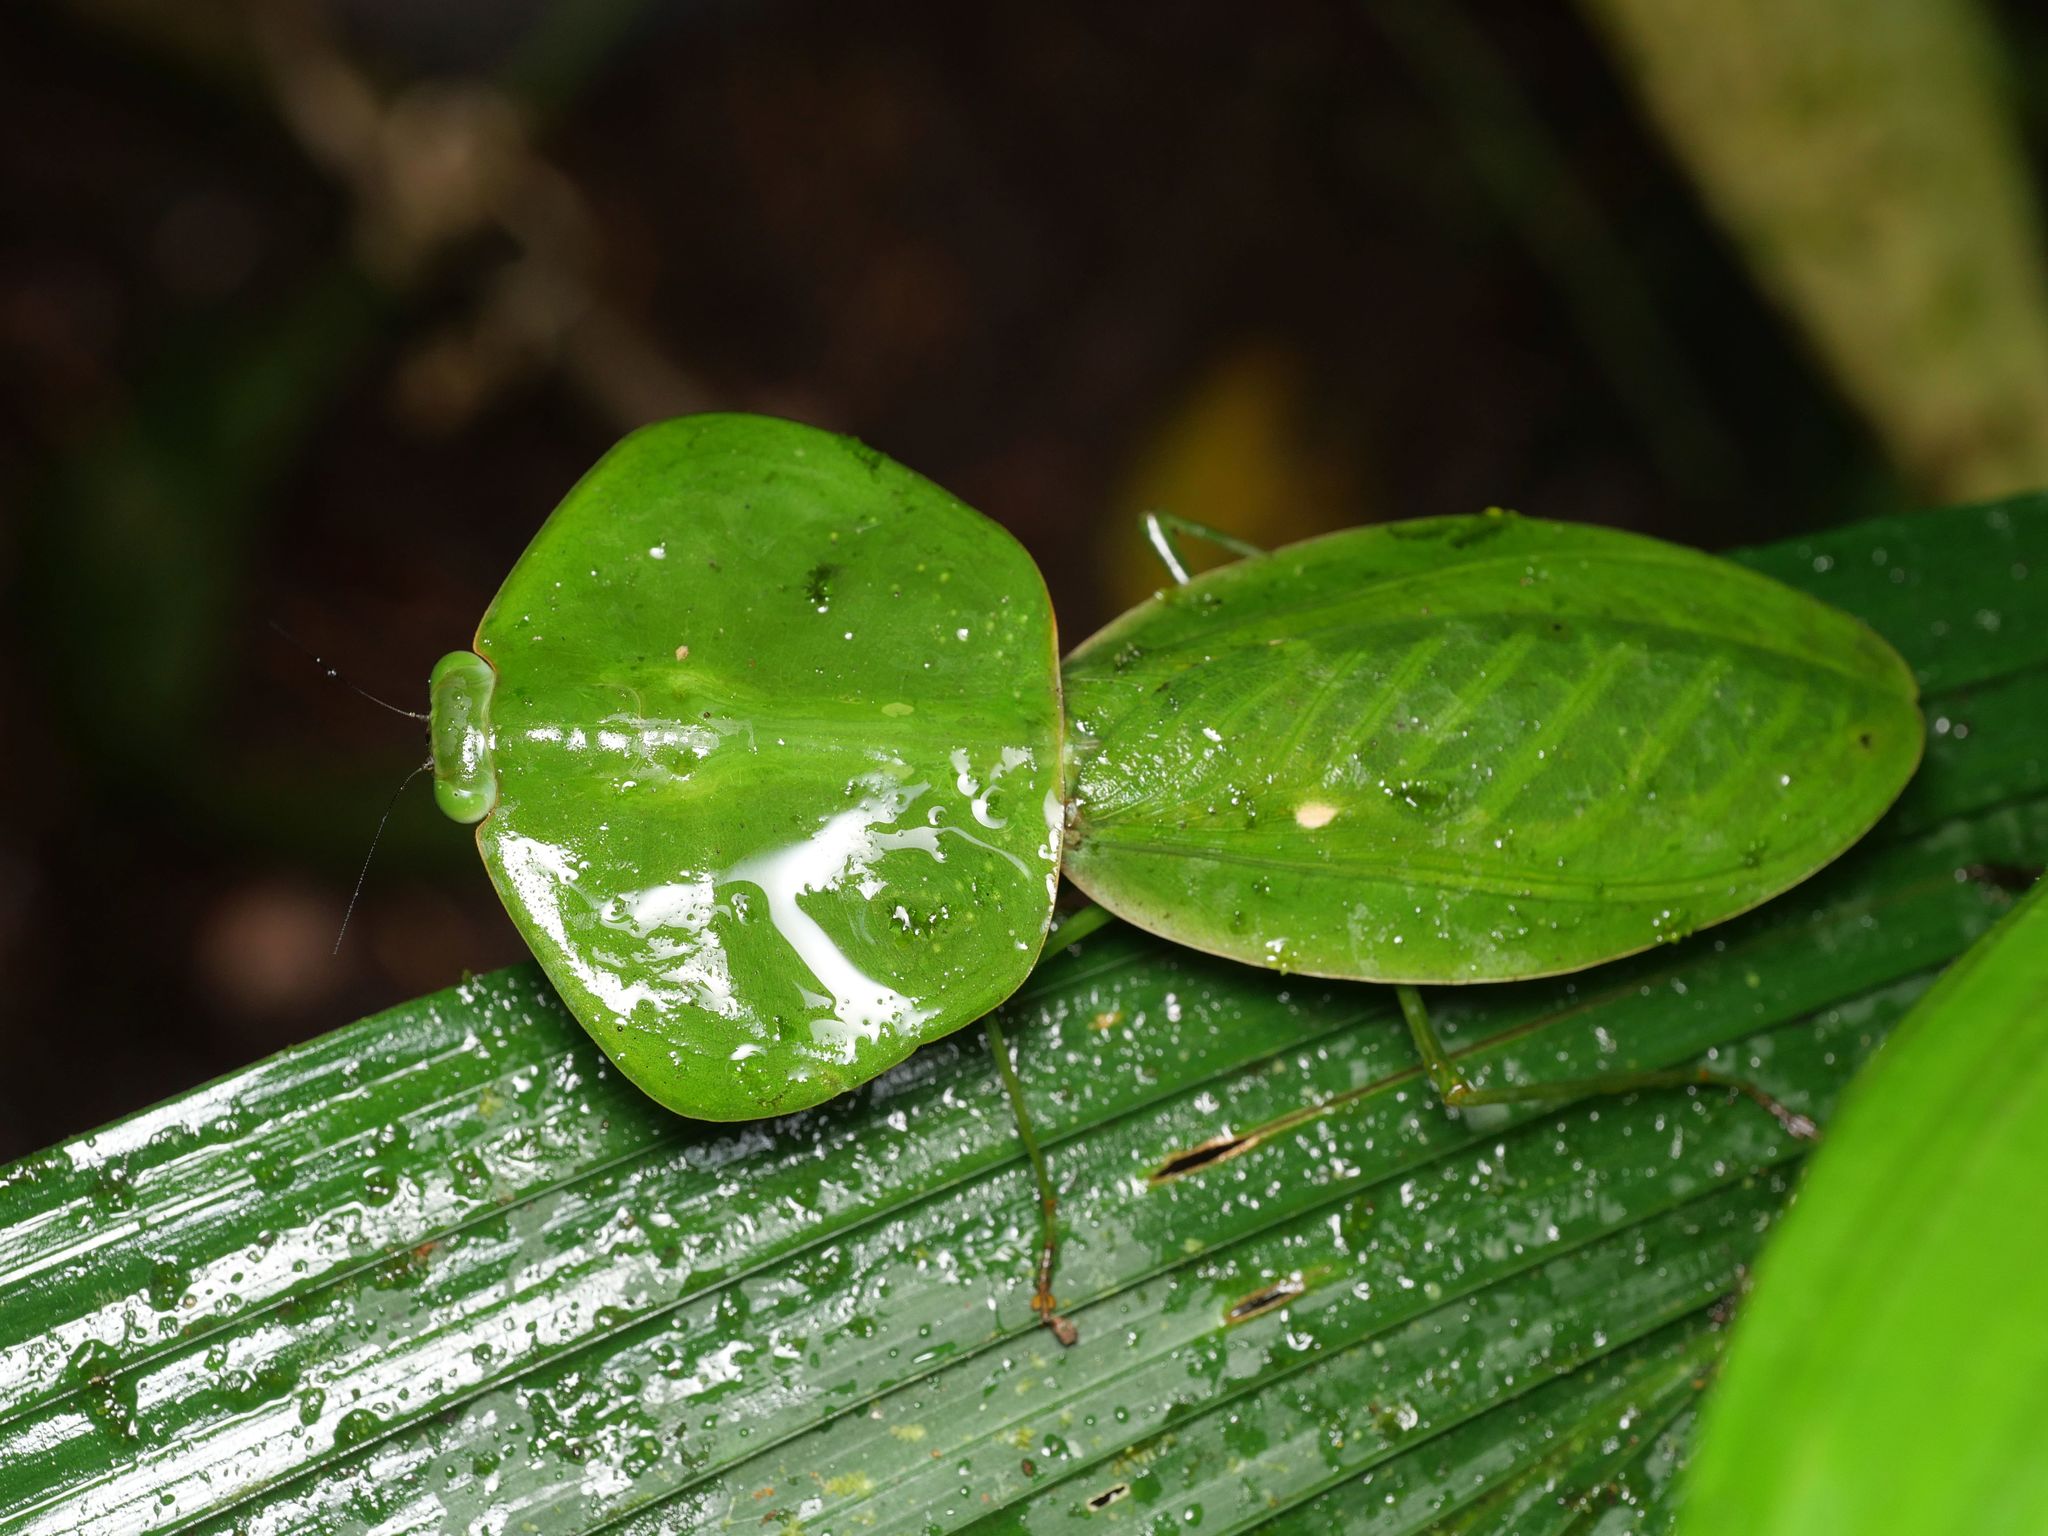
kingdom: Animalia
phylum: Arthropoda
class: Insecta
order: Mantodea
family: Mantidae
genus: Choeradodis
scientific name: Choeradodis rhombicollis
